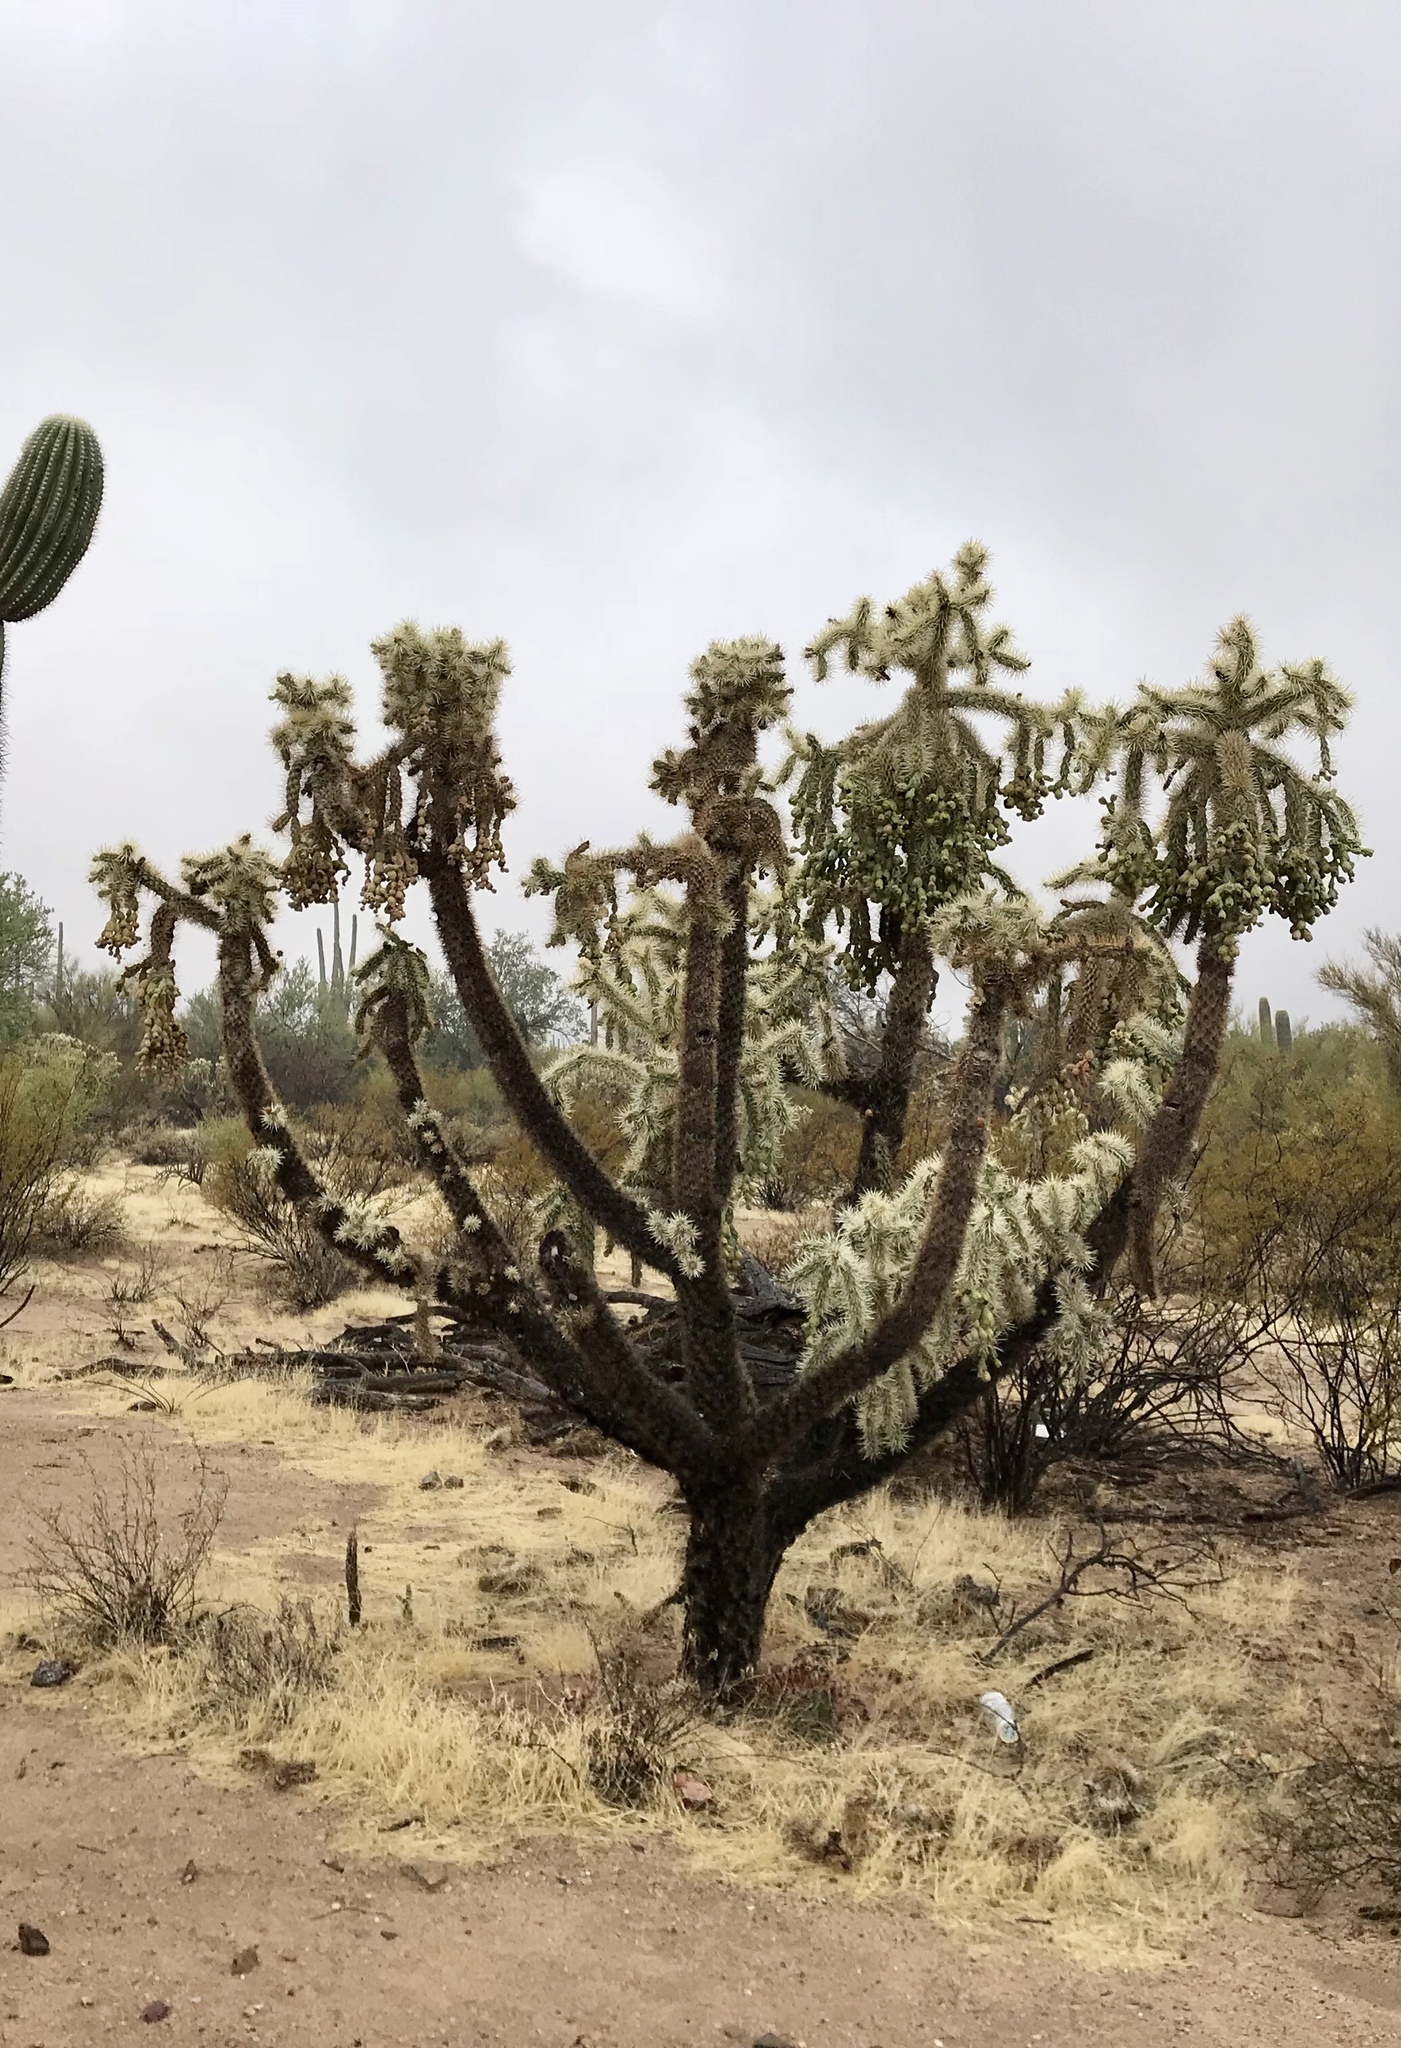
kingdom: Plantae
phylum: Tracheophyta
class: Magnoliopsida
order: Caryophyllales
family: Cactaceae
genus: Cylindropuntia
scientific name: Cylindropuntia fulgida
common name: Jumping cholla
